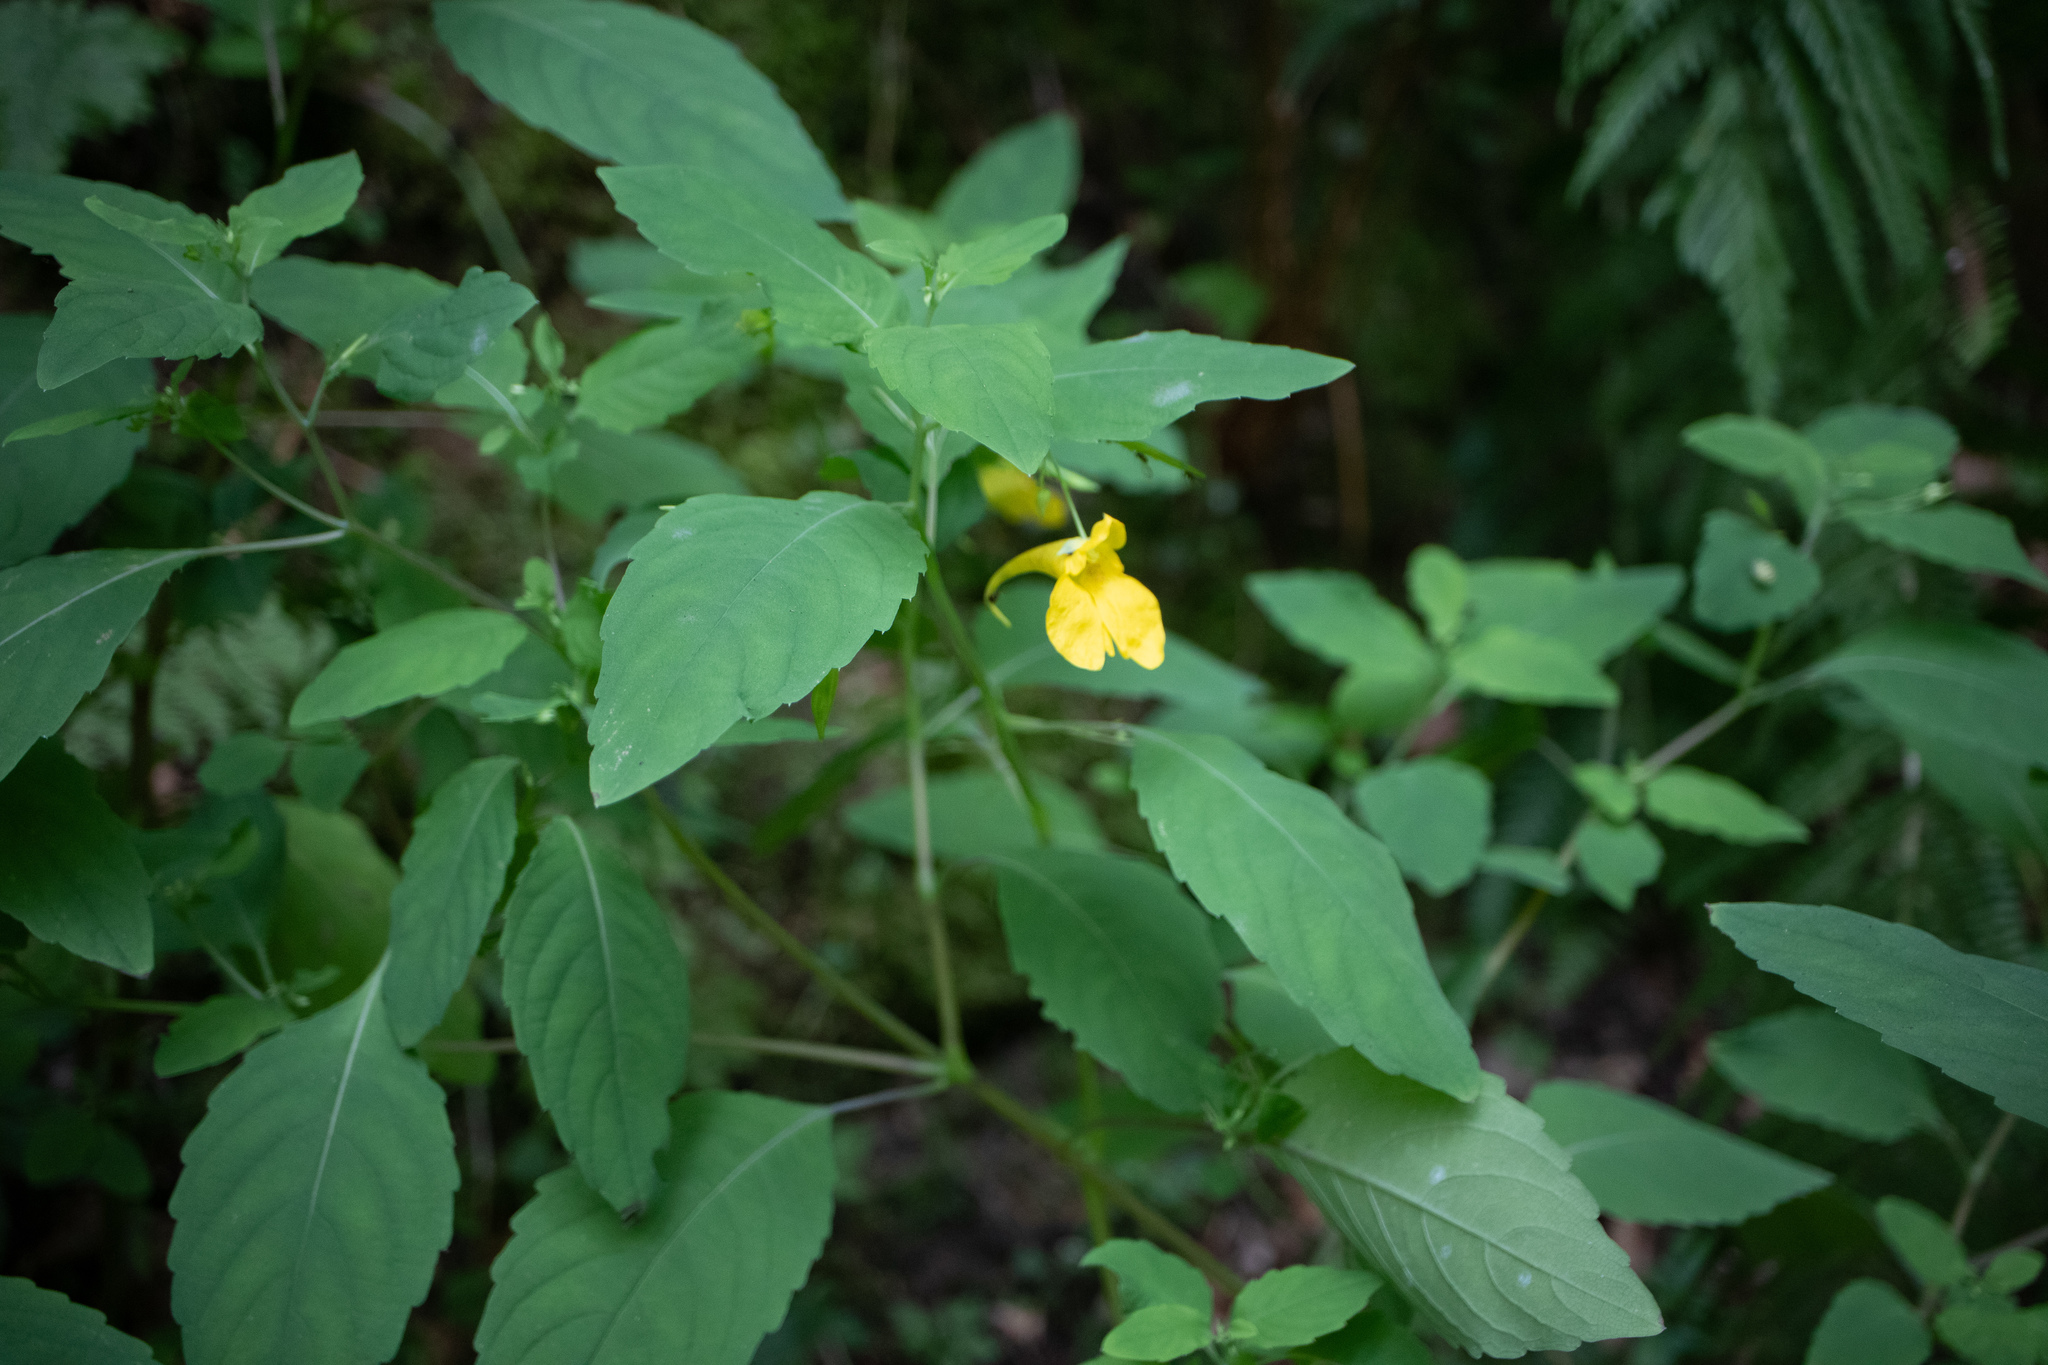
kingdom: Plantae
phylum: Tracheophyta
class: Magnoliopsida
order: Ericales
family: Balsaminaceae
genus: Impatiens
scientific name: Impatiens noli-tangere
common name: Touch-me-not balsam
